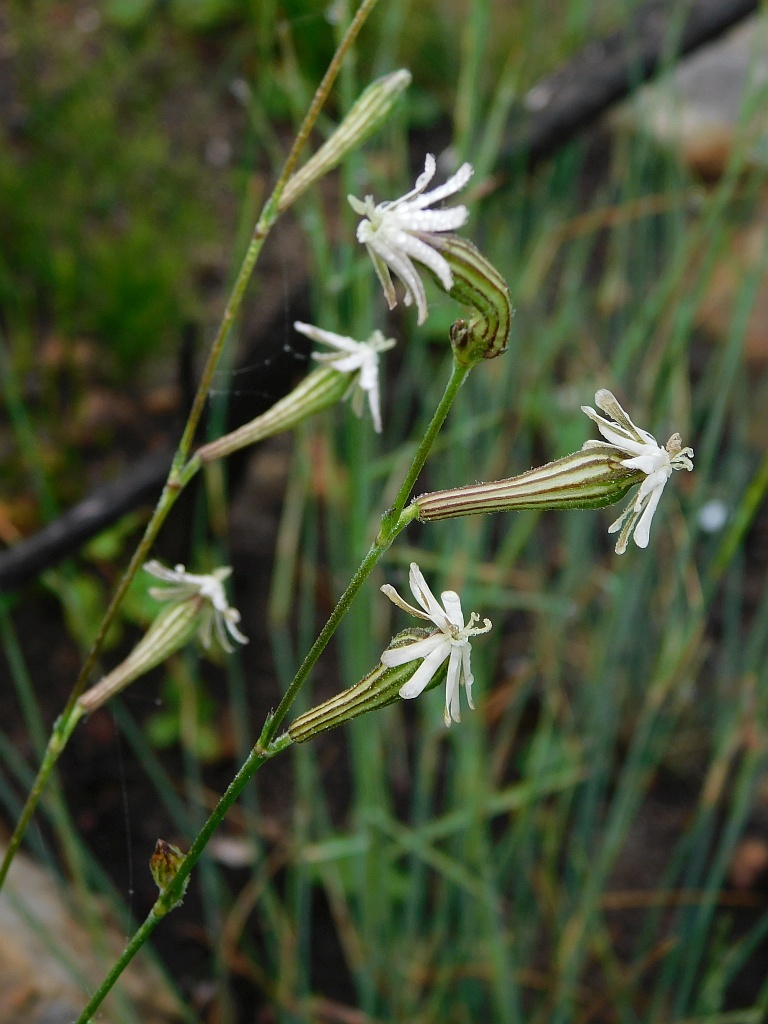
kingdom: Plantae
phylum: Tracheophyta
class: Magnoliopsida
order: Caryophyllales
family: Caryophyllaceae
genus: Silene
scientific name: Silene burchellii
